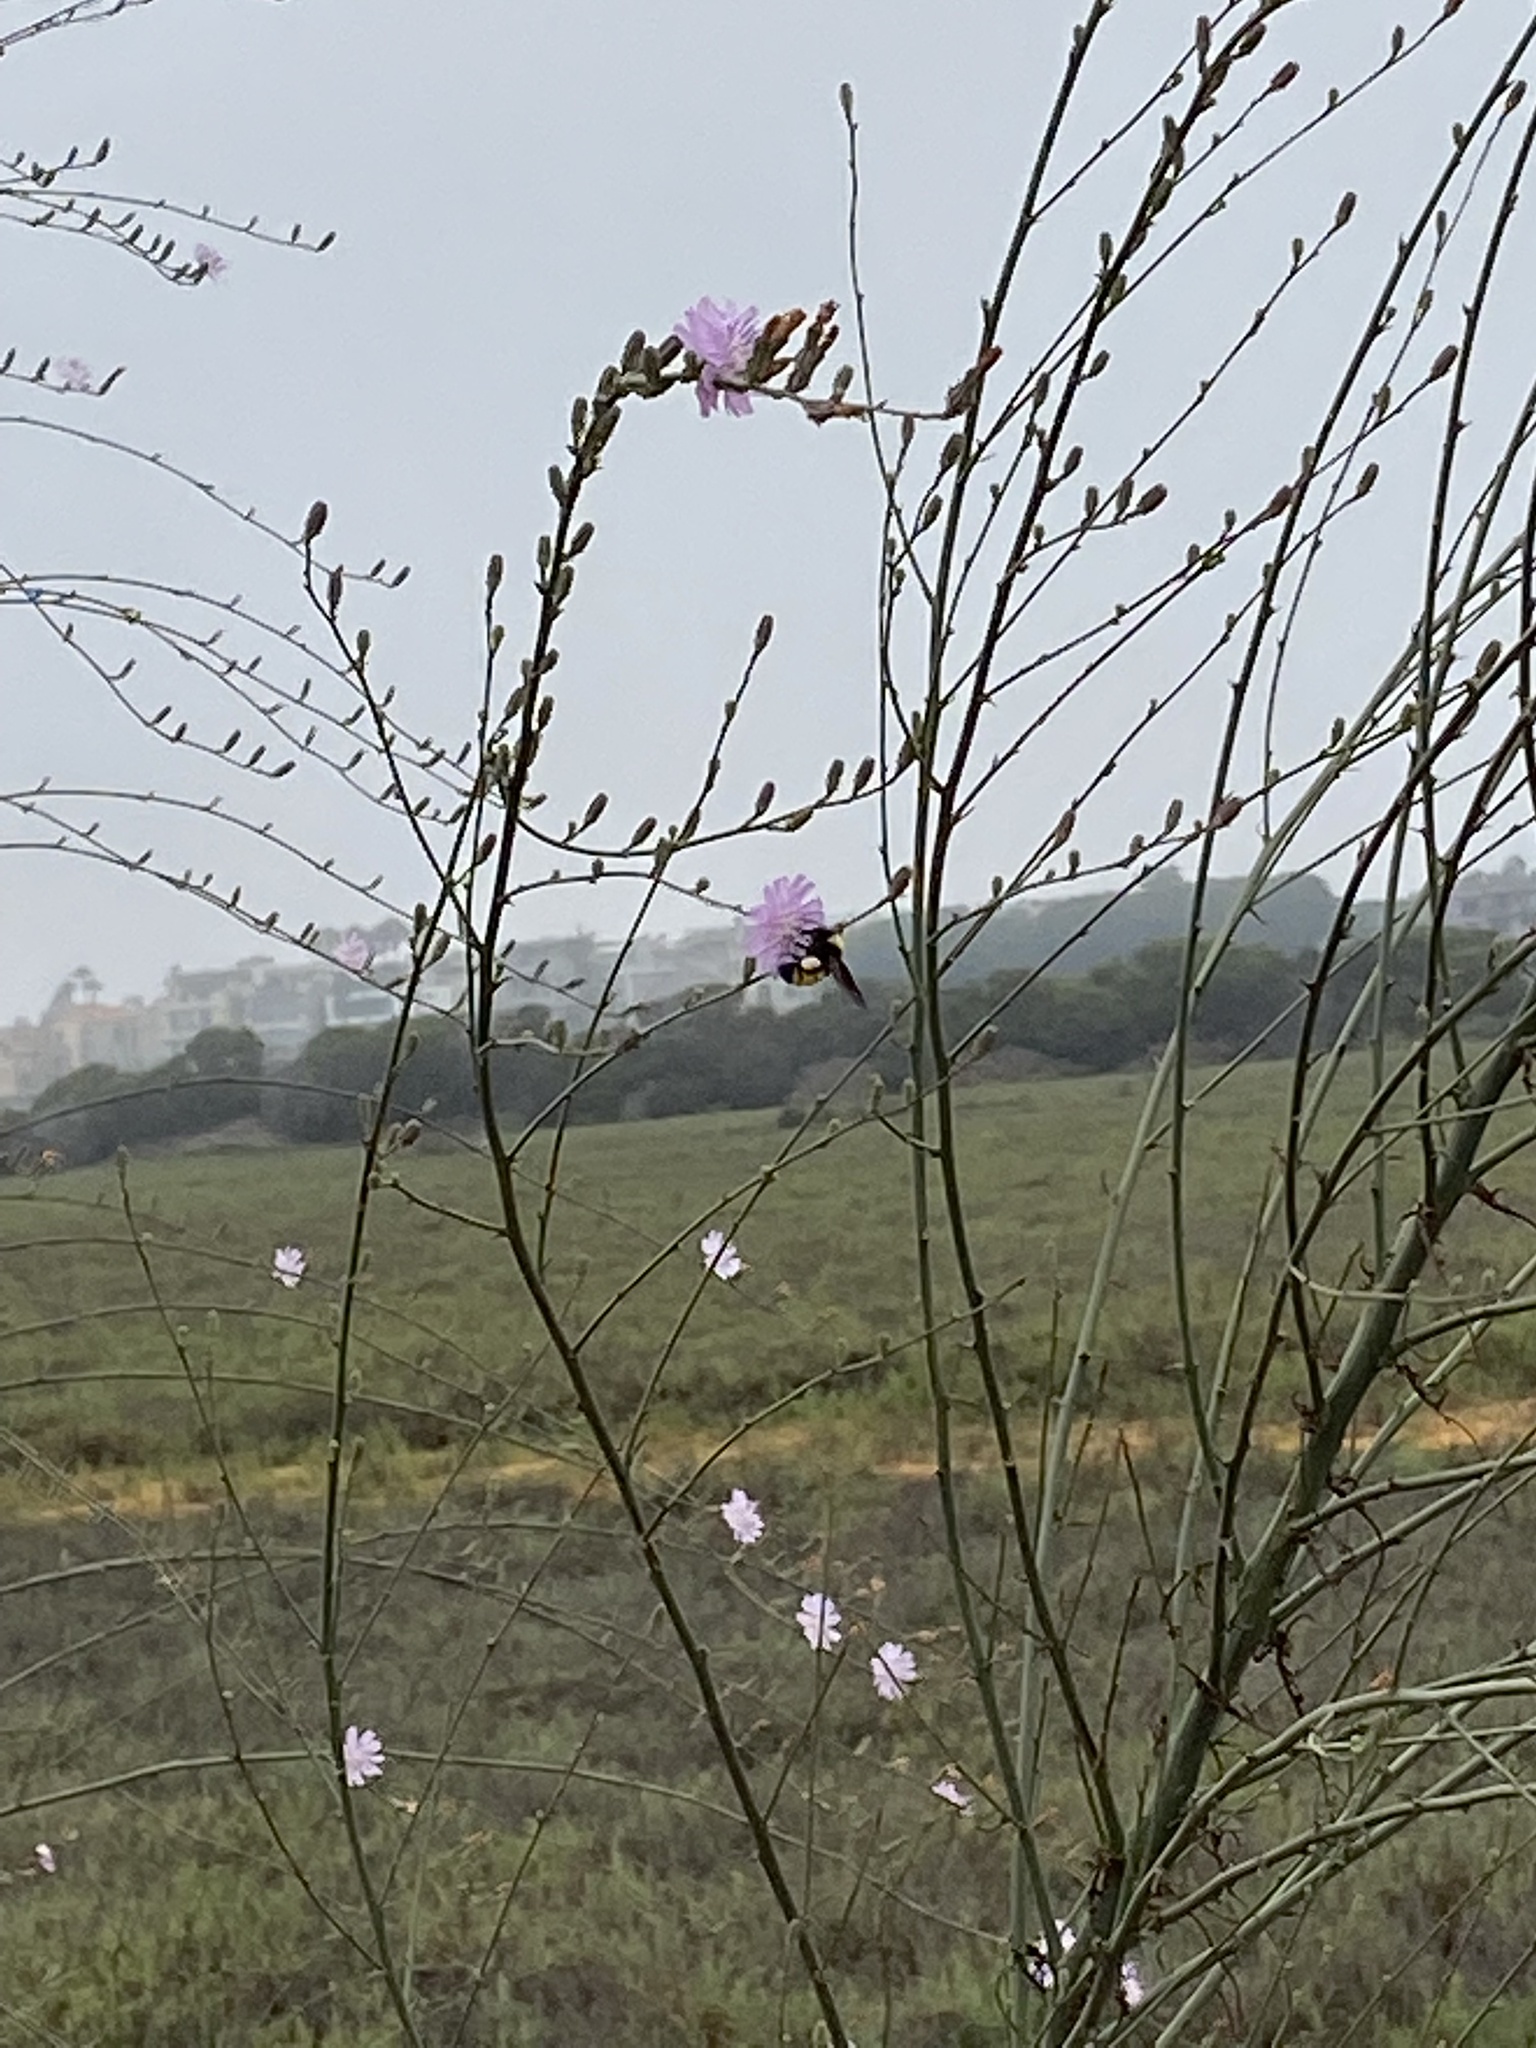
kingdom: Animalia
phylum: Arthropoda
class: Insecta
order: Hymenoptera
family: Apidae
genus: Bombus
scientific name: Bombus sonorus
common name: Sonoran bumble bee
